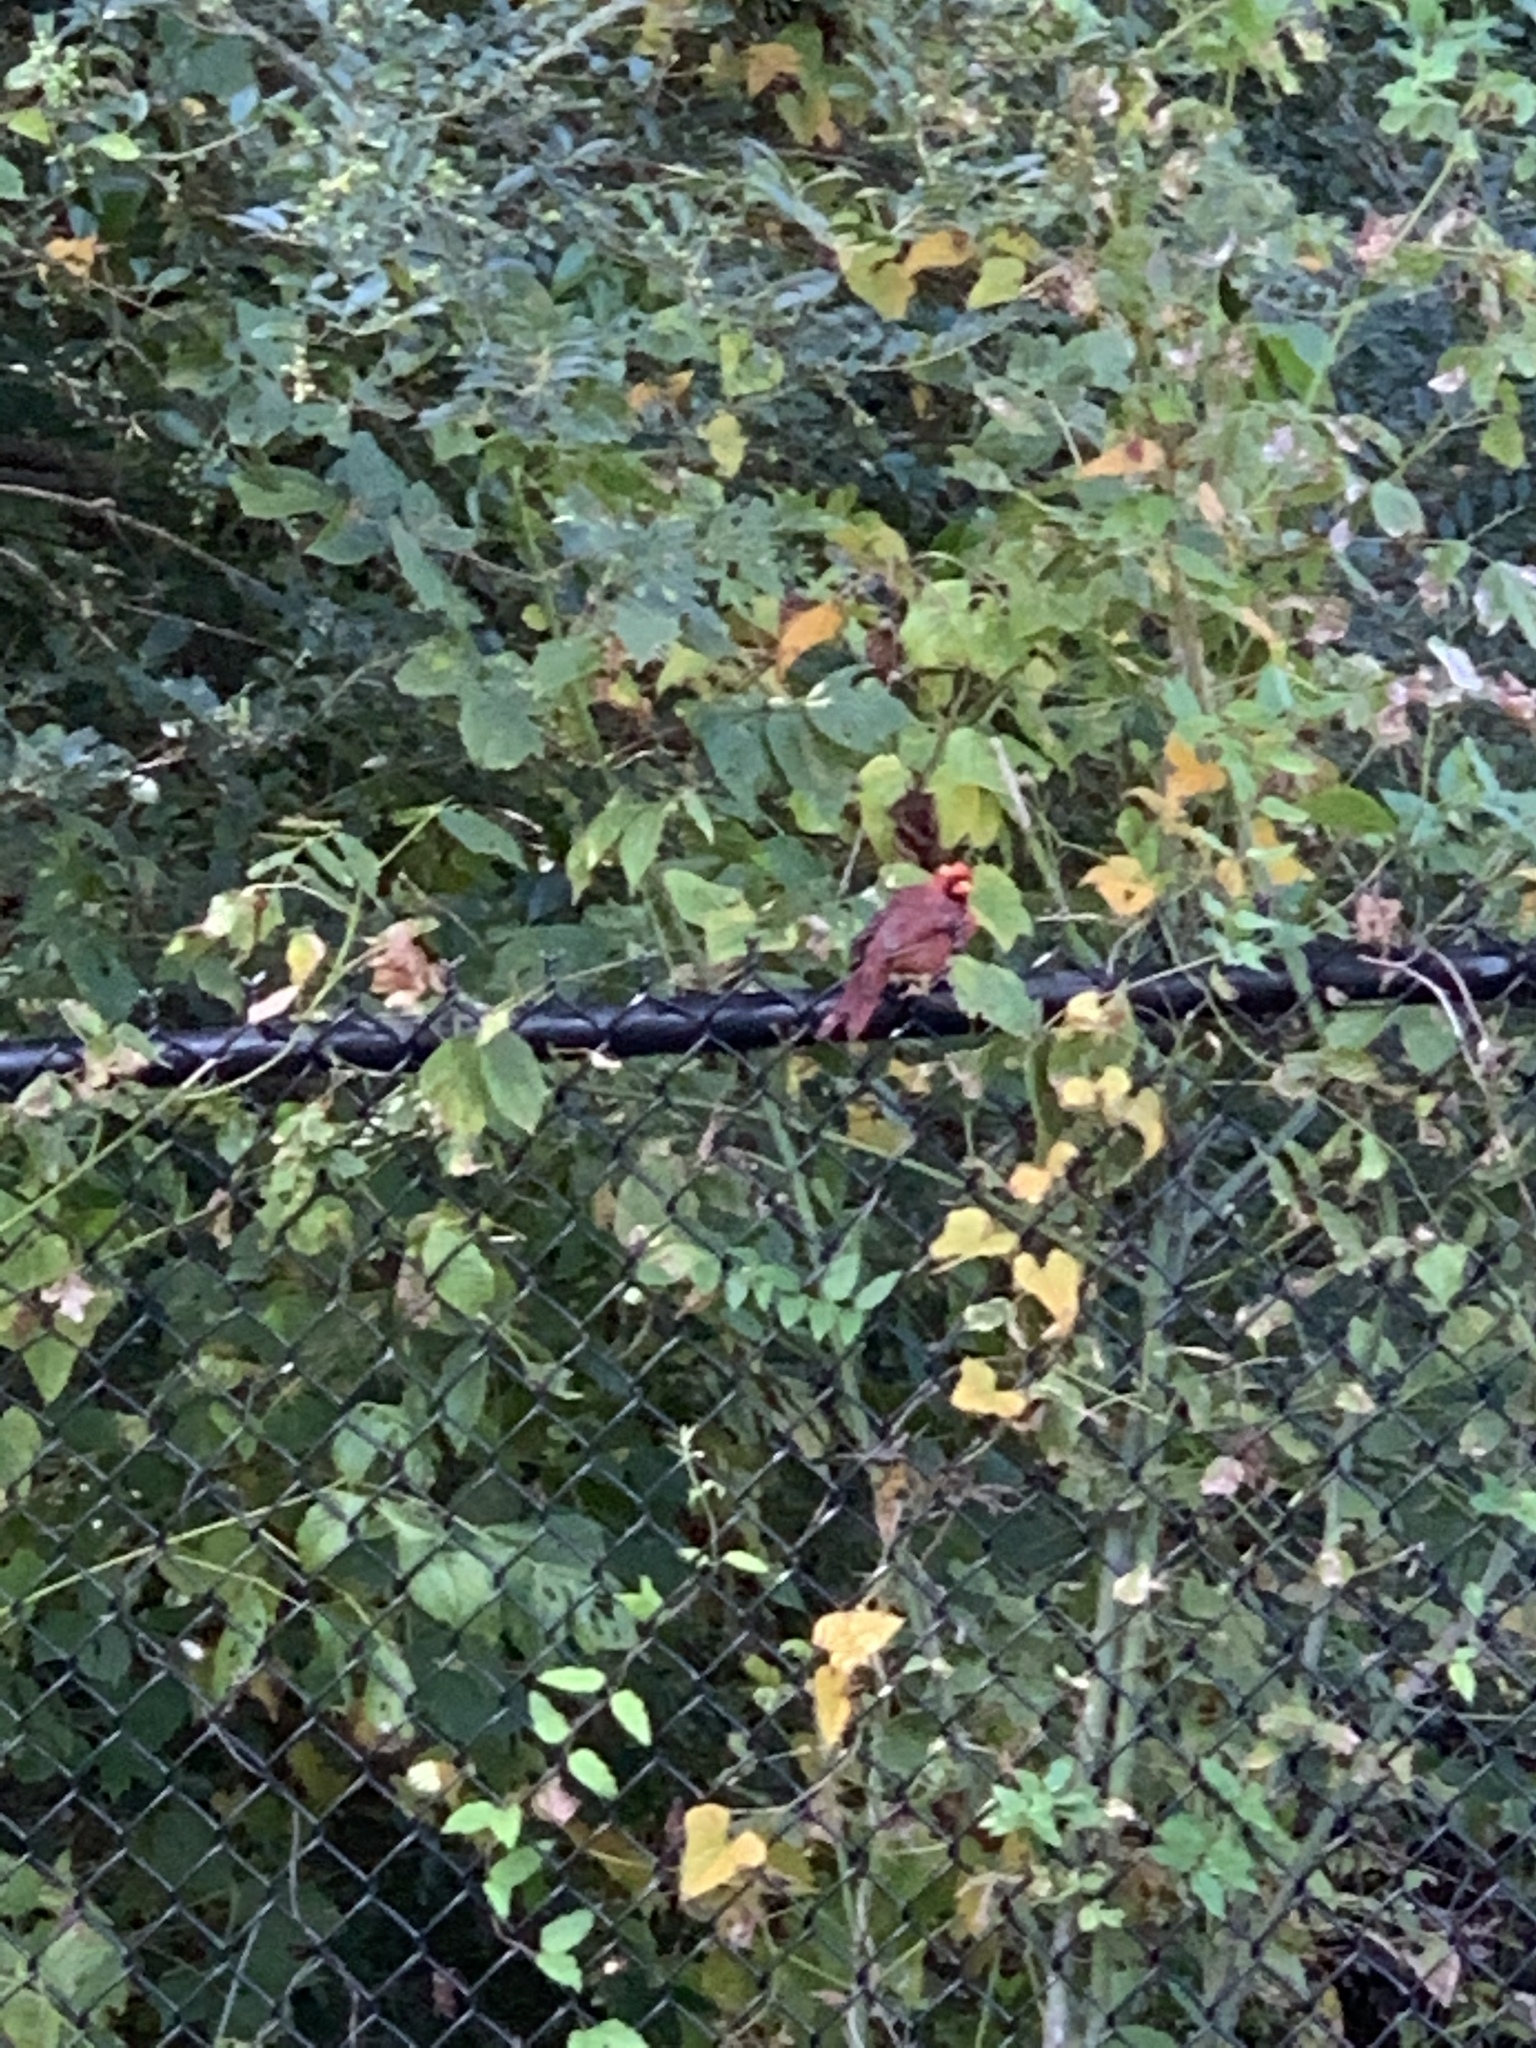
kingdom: Animalia
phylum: Chordata
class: Aves
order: Passeriformes
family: Cardinalidae
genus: Cardinalis
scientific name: Cardinalis cardinalis
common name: Northern cardinal
